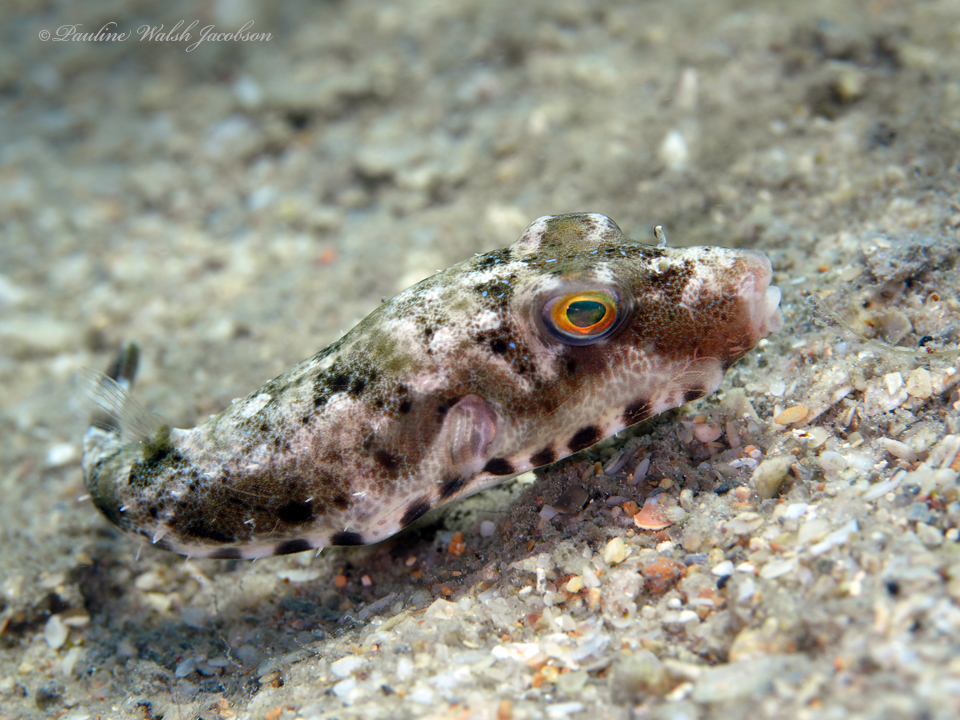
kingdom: Animalia
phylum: Chordata
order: Tetraodontiformes
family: Tetraodontidae
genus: Sphoeroides
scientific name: Sphoeroides spengleri
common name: Bandtail puffer
